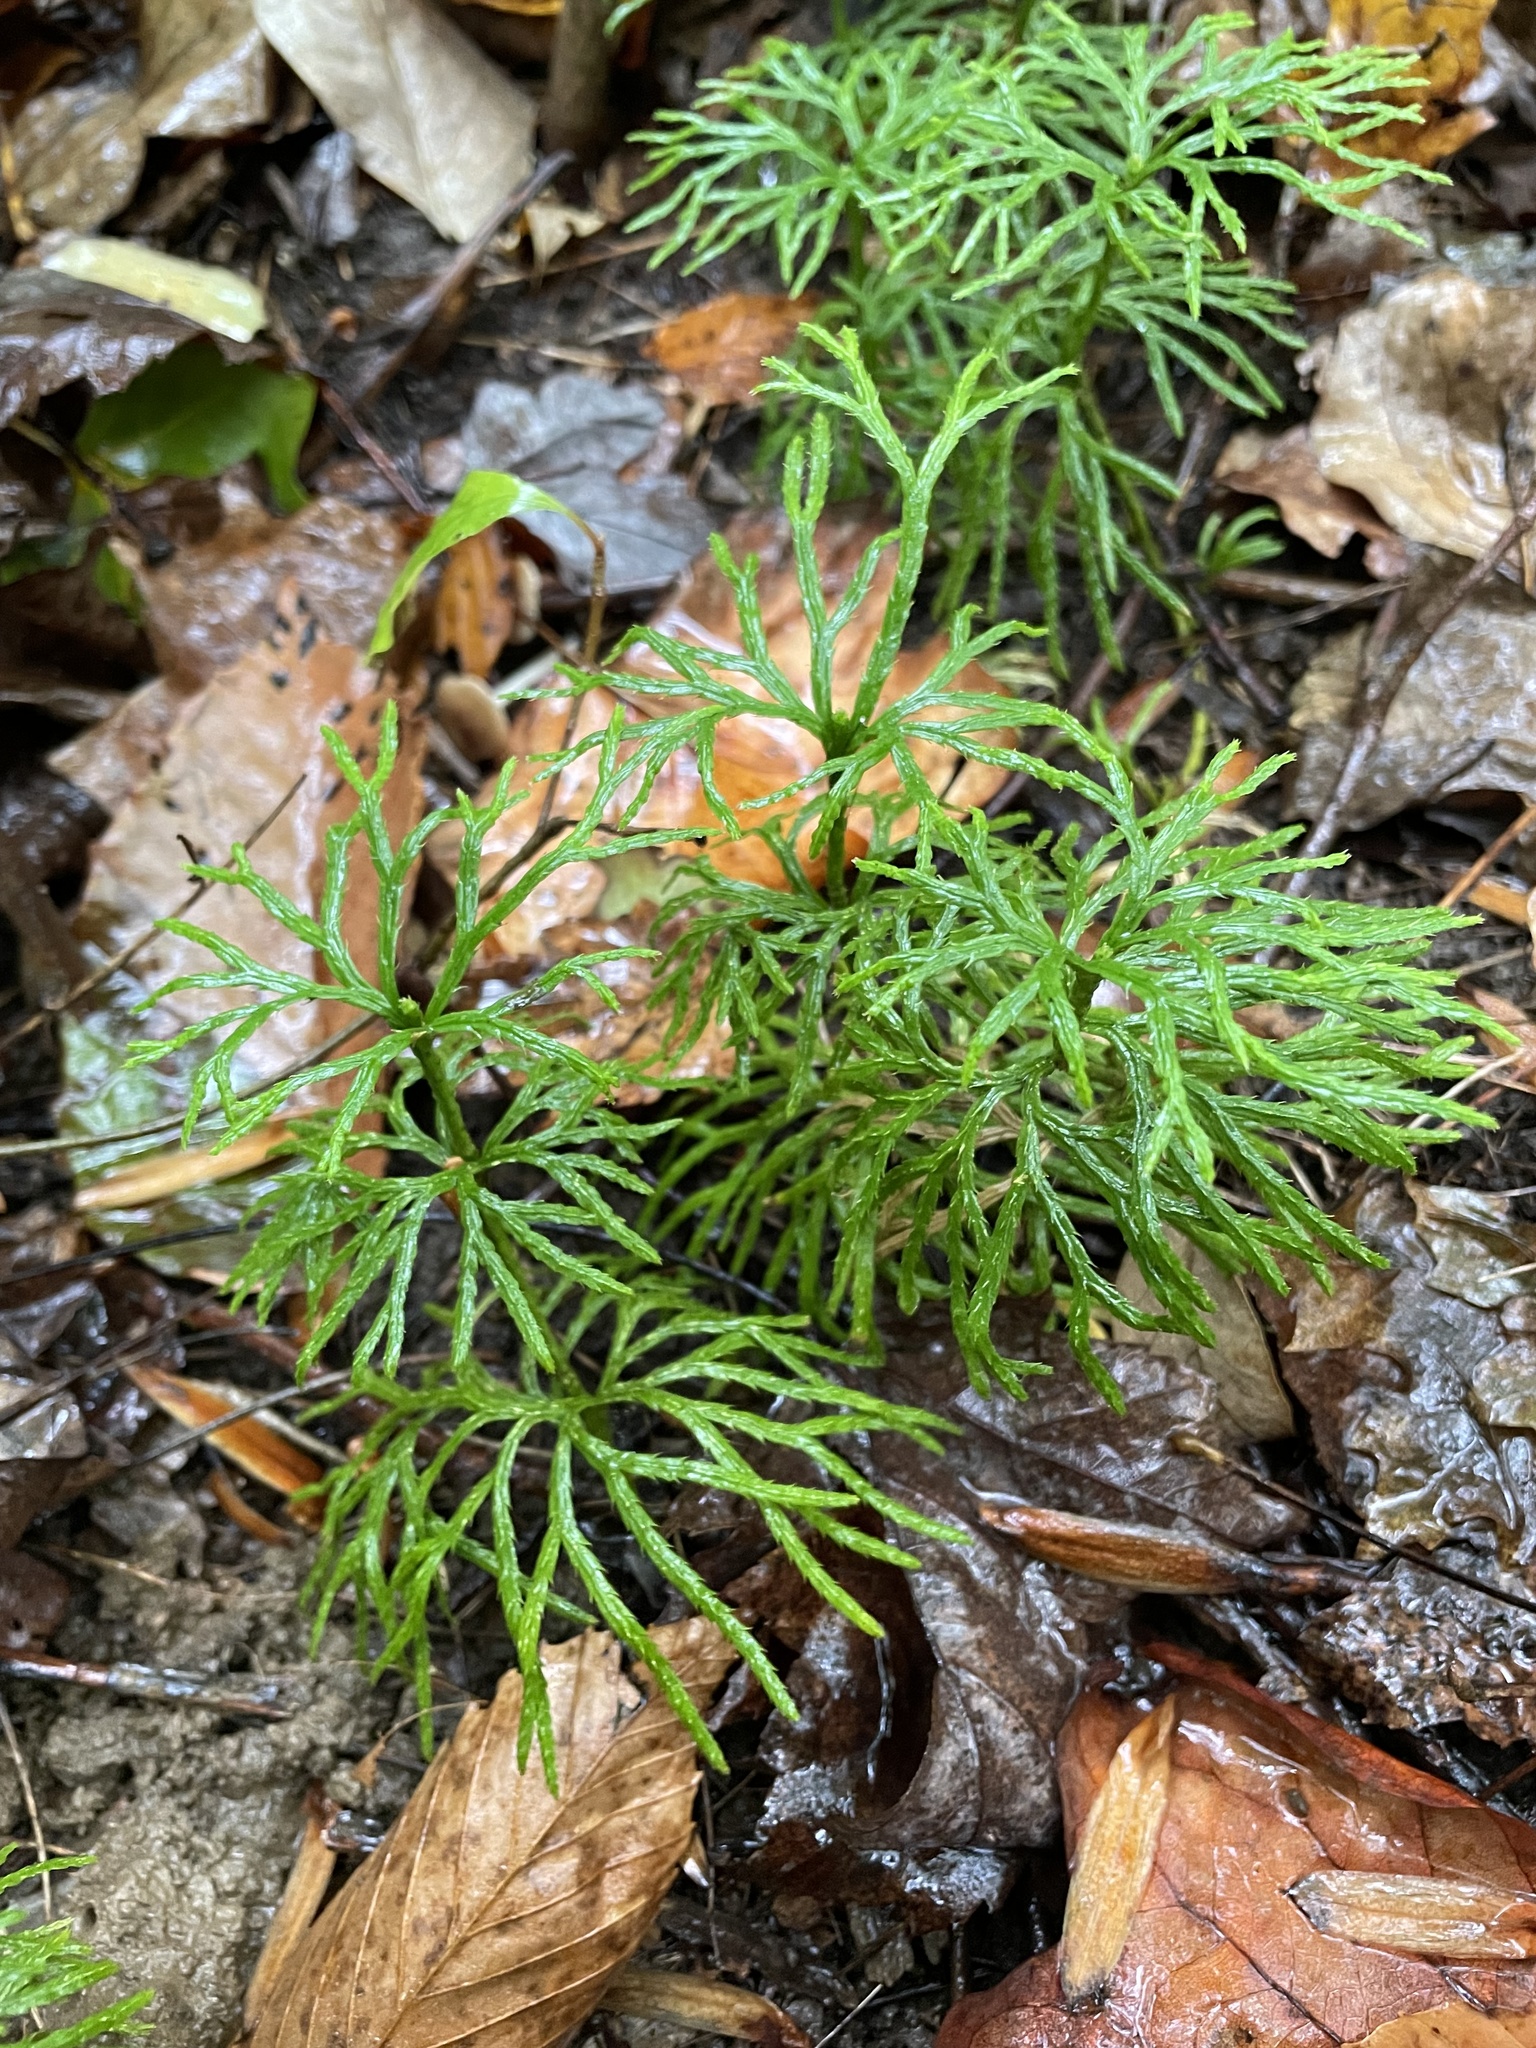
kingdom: Plantae
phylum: Tracheophyta
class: Lycopodiopsida
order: Lycopodiales
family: Lycopodiaceae
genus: Diphasiastrum
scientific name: Diphasiastrum digitatum
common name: Southern running-pine
